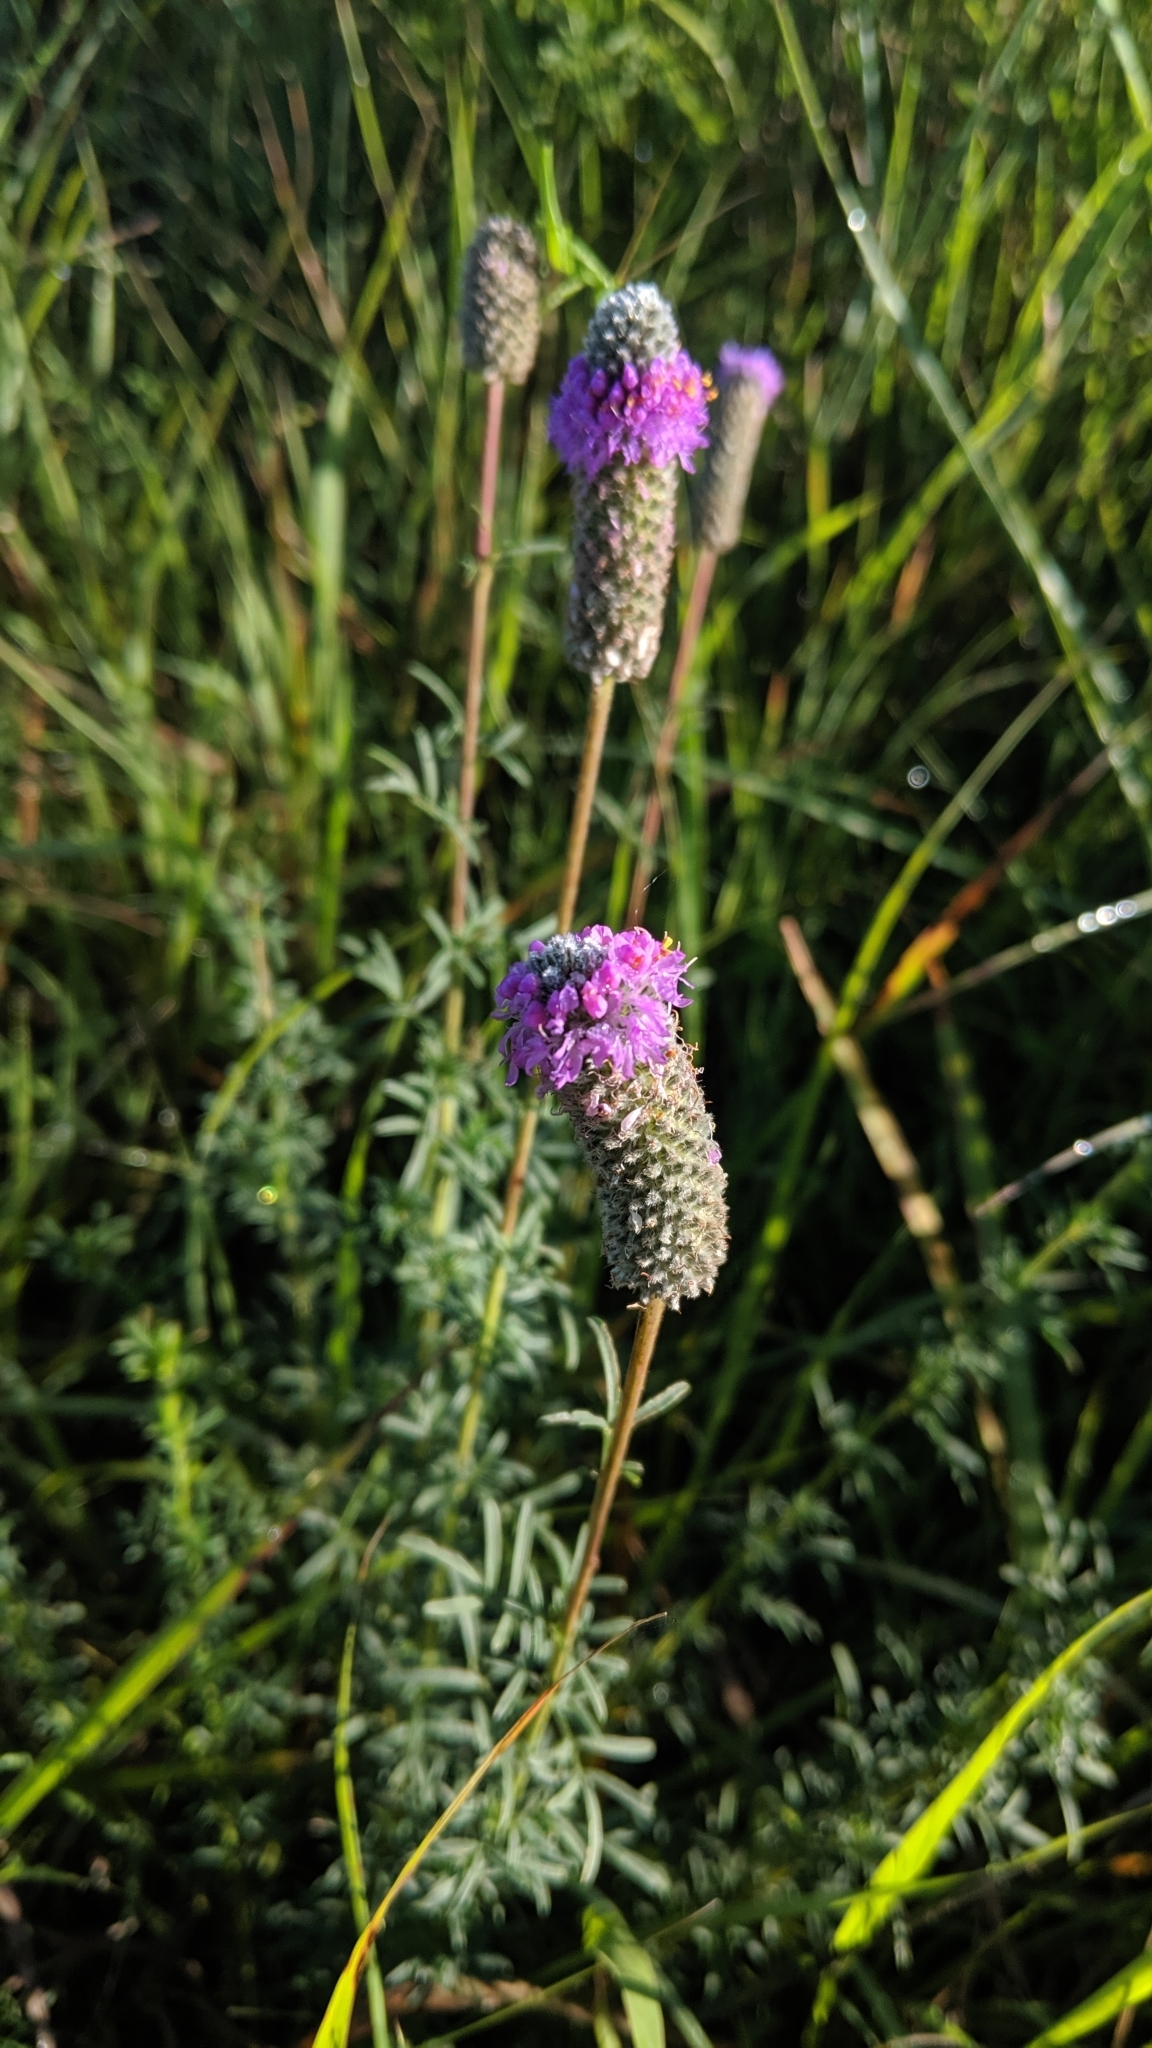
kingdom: Plantae
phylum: Tracheophyta
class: Magnoliopsida
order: Fabales
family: Fabaceae
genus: Dalea
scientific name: Dalea purpurea
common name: Purple prairie-clover
